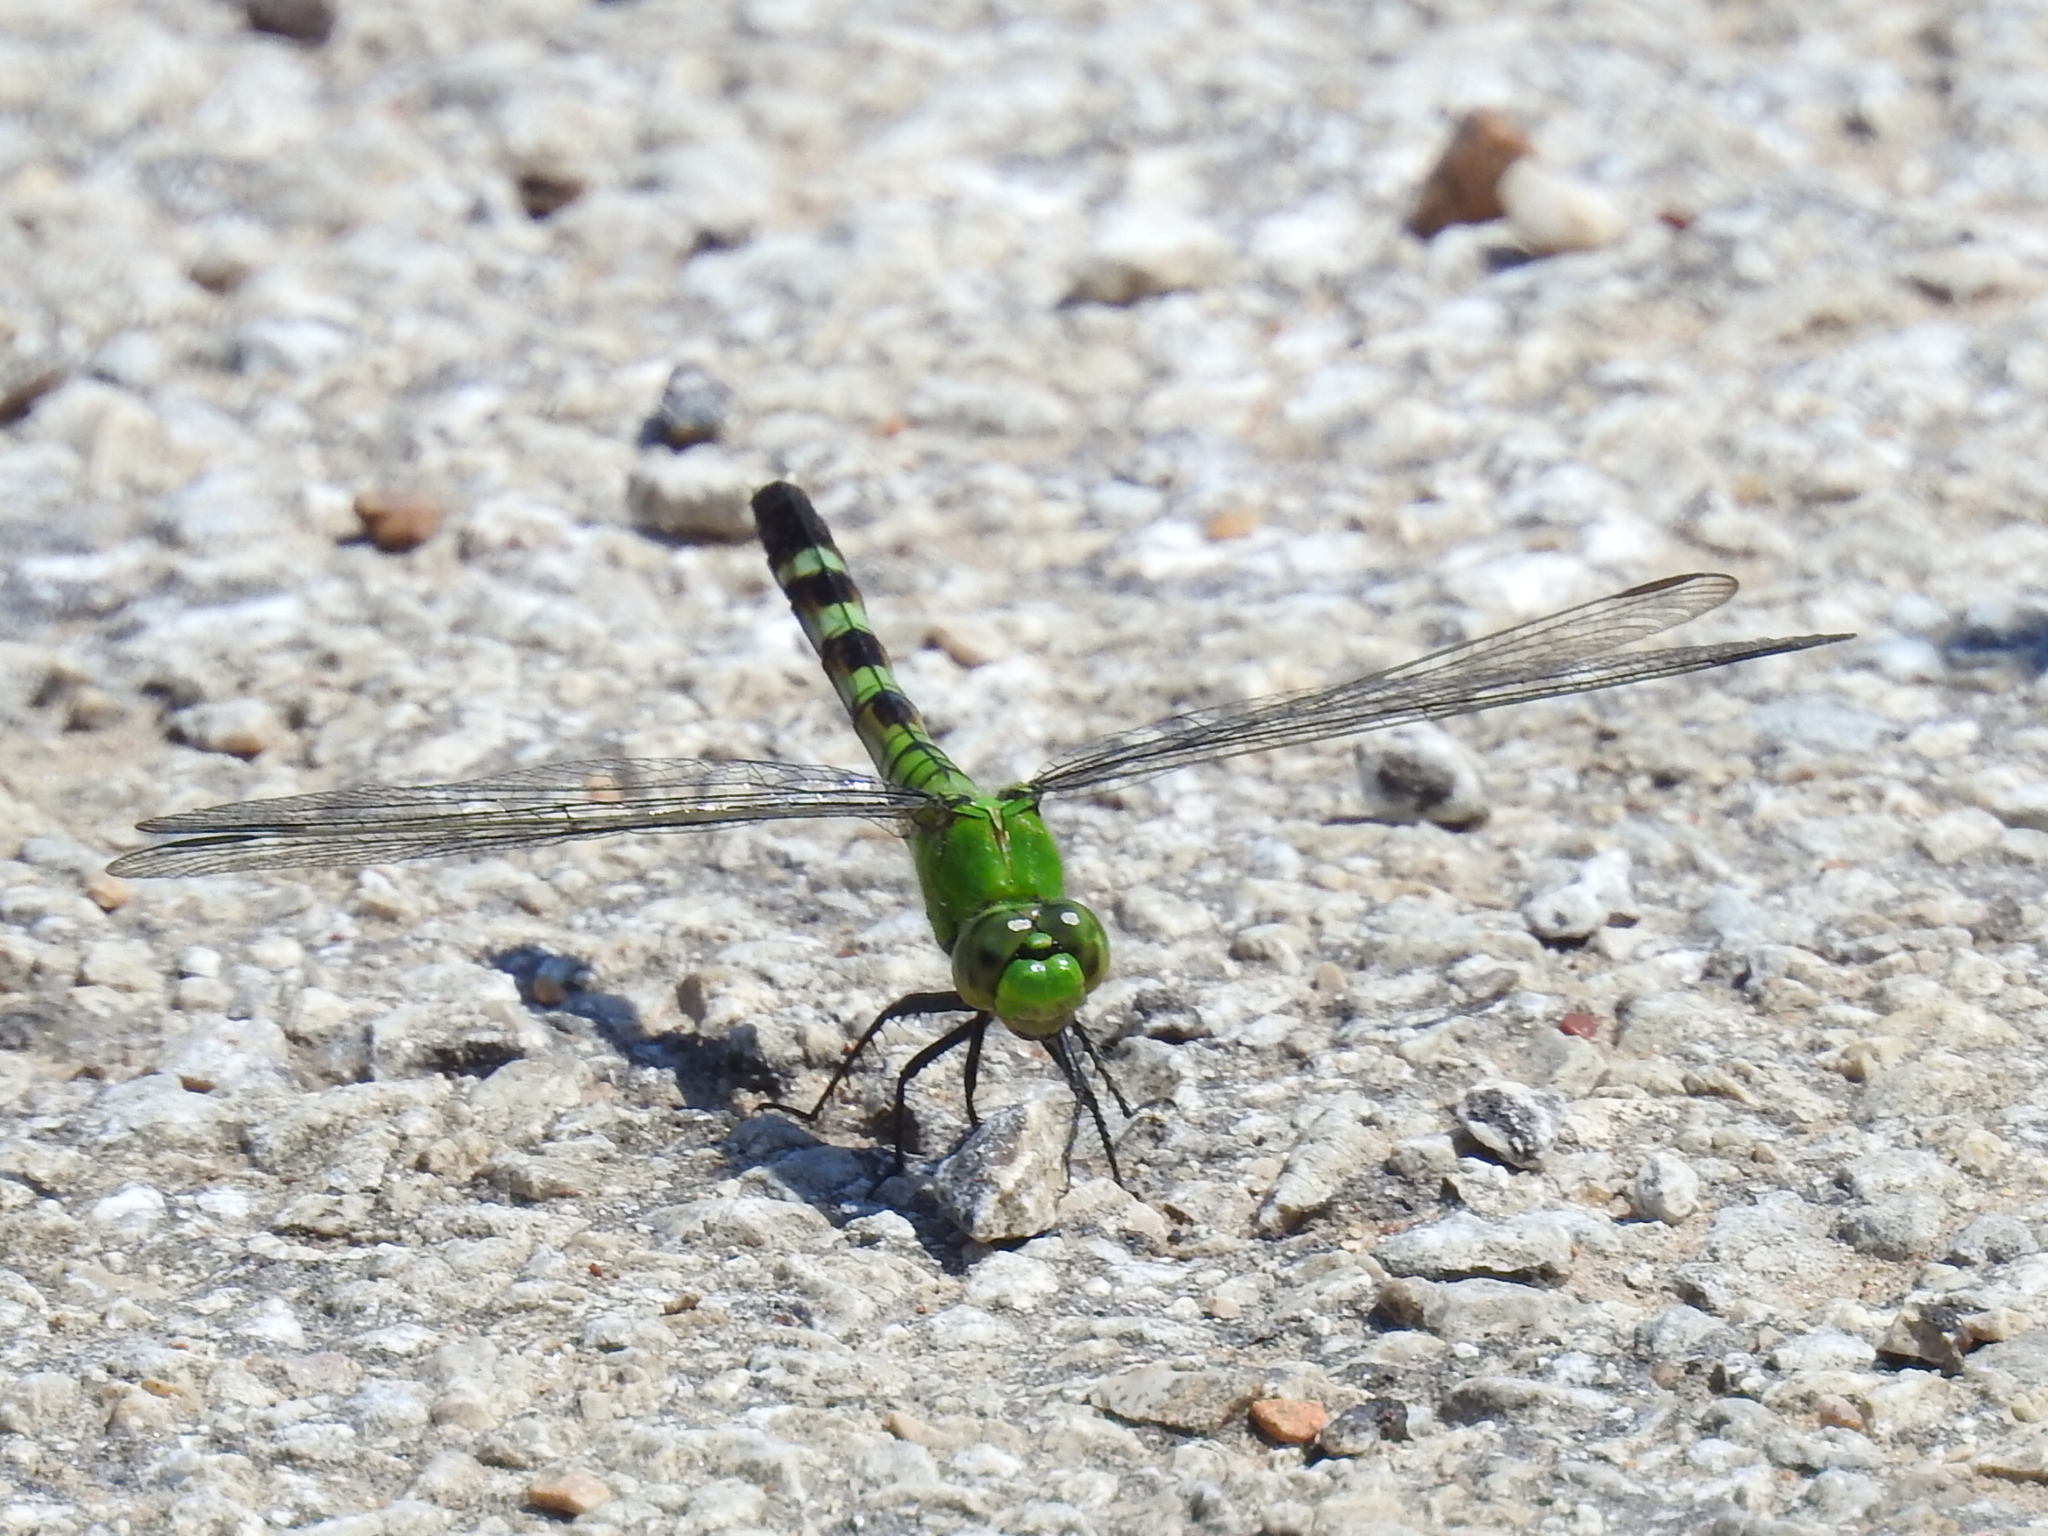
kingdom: Animalia
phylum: Arthropoda
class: Insecta
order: Odonata
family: Libellulidae
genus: Erythemis
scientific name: Erythemis simplicicollis
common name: Eastern pondhawk
